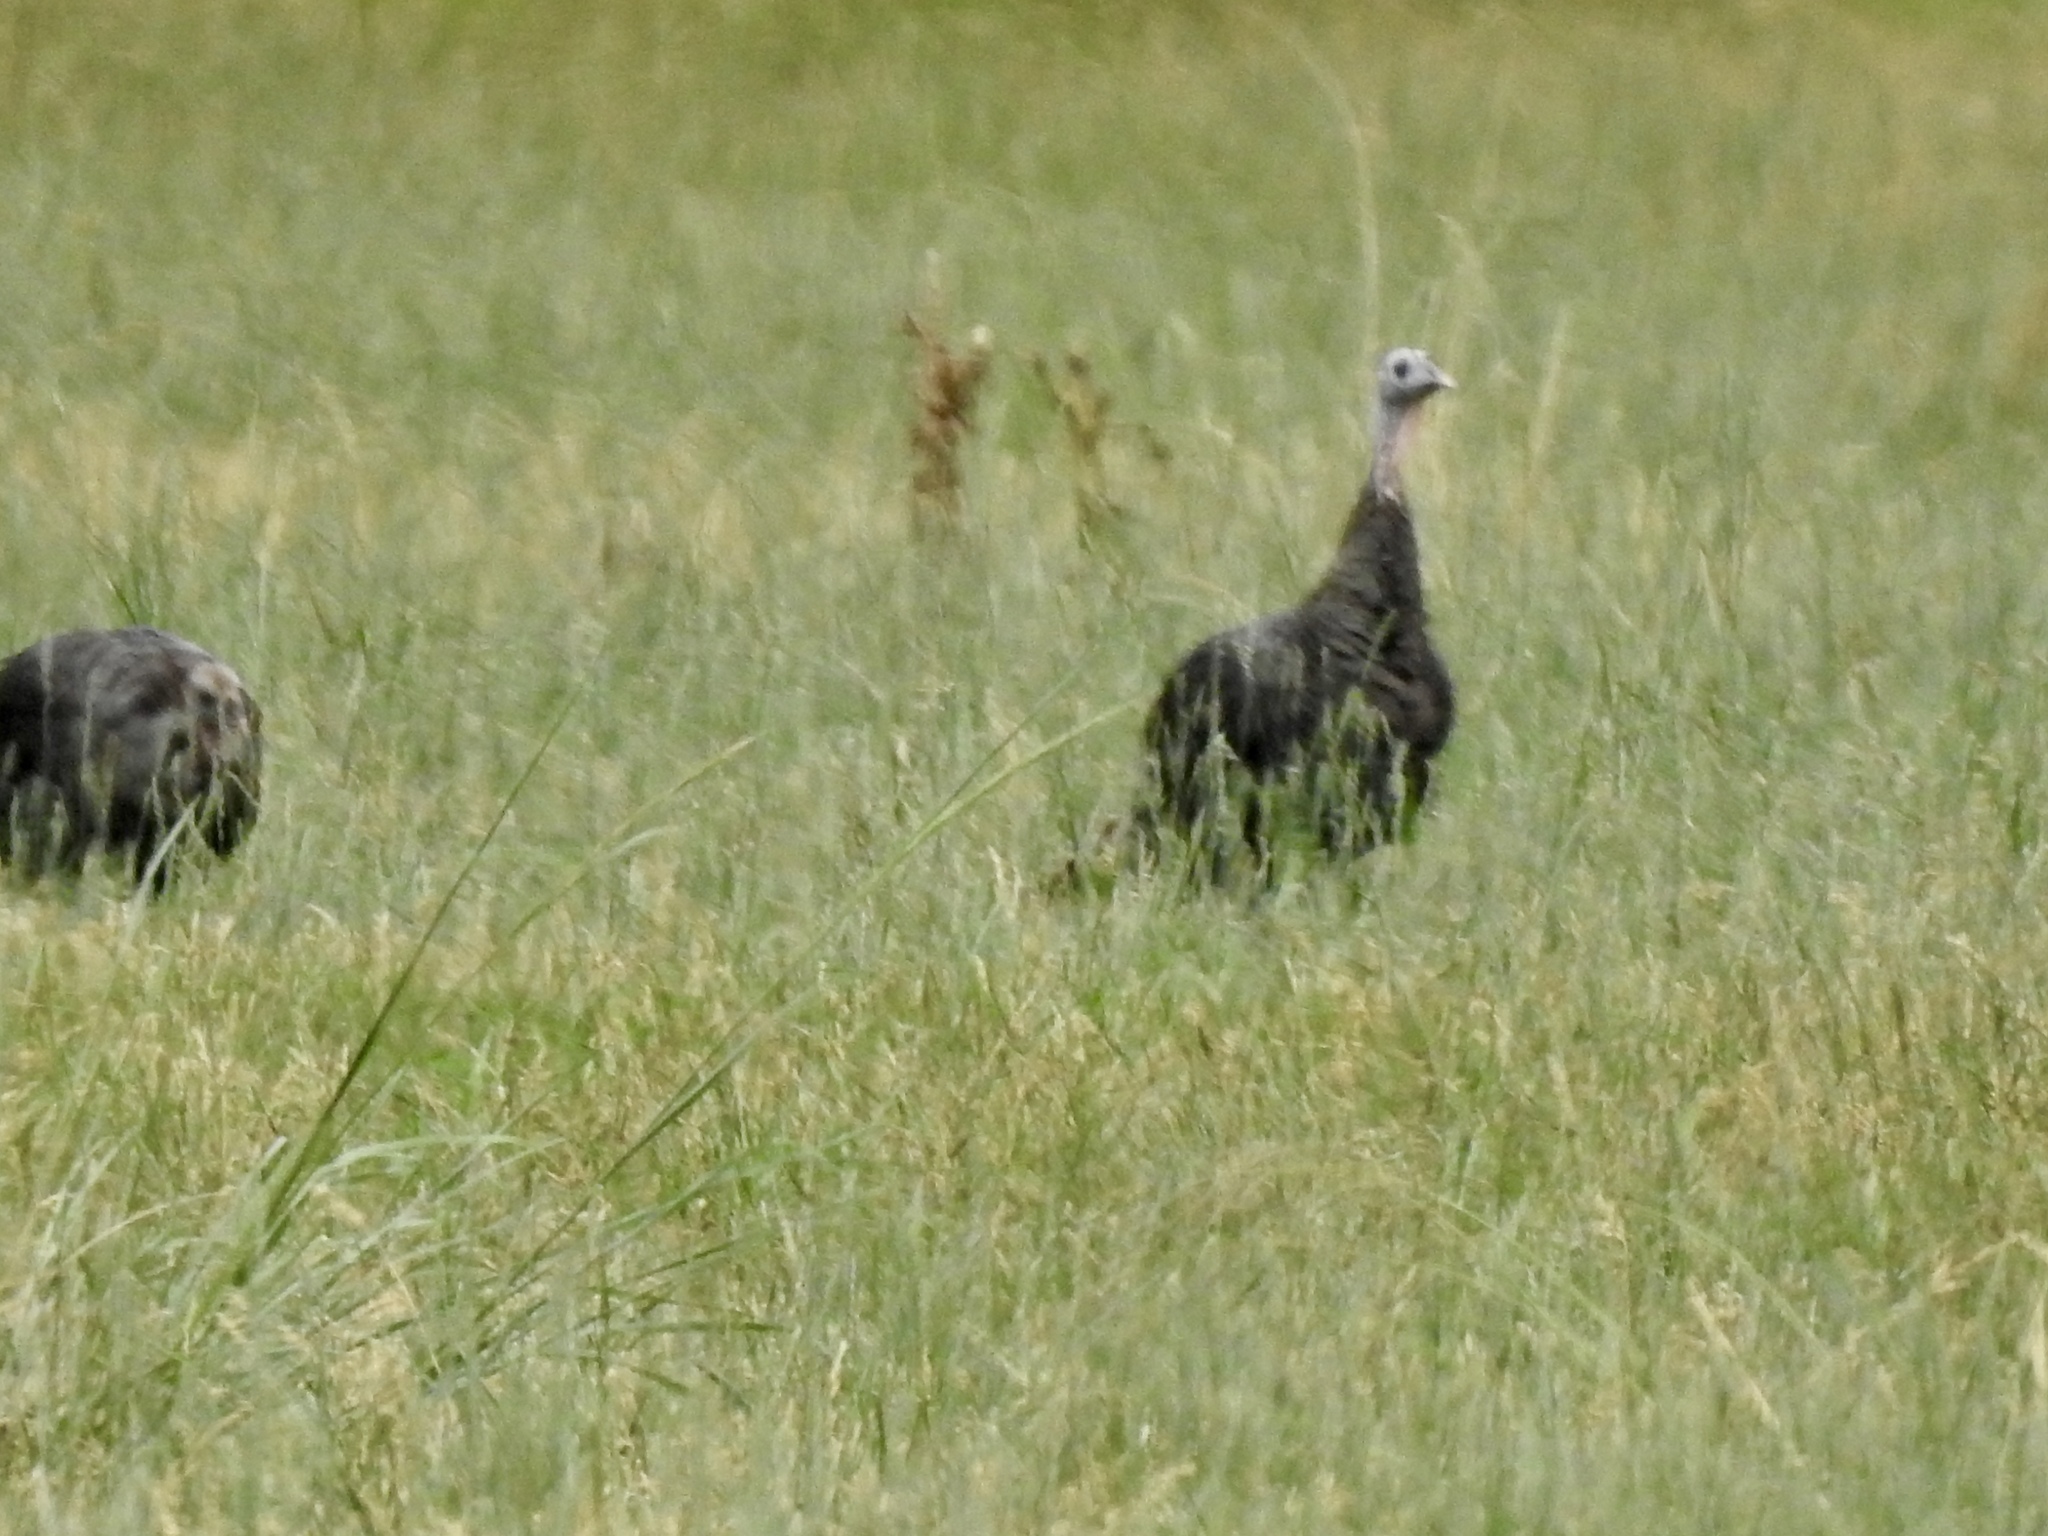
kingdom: Animalia
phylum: Chordata
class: Aves
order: Galliformes
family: Phasianidae
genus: Meleagris
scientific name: Meleagris gallopavo
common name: Wild turkey
